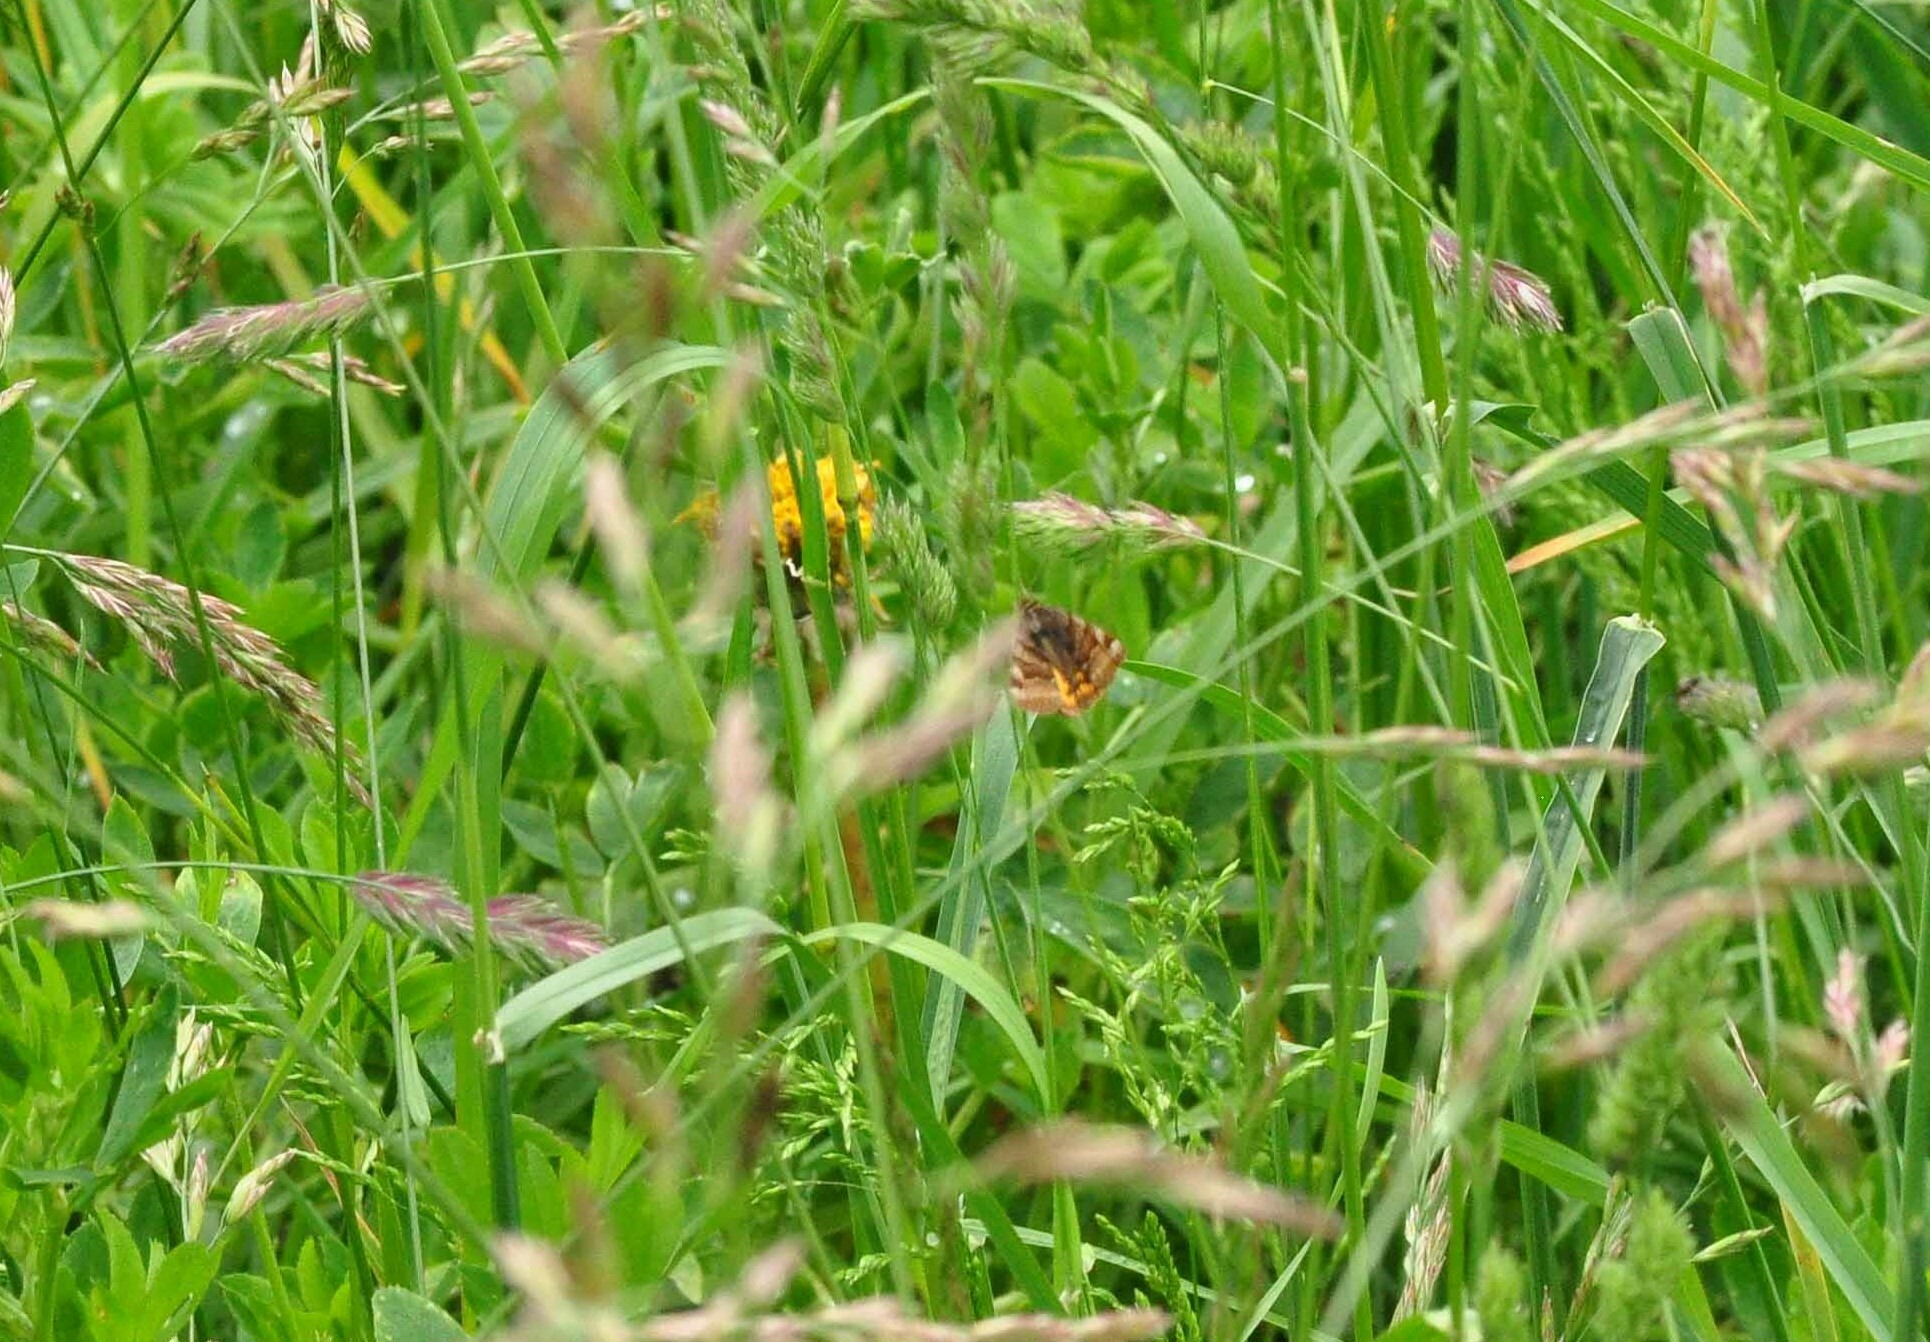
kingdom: Animalia
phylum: Arthropoda
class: Insecta
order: Lepidoptera
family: Erebidae
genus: Euclidia
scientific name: Euclidia glyphica
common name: Burnet companion
